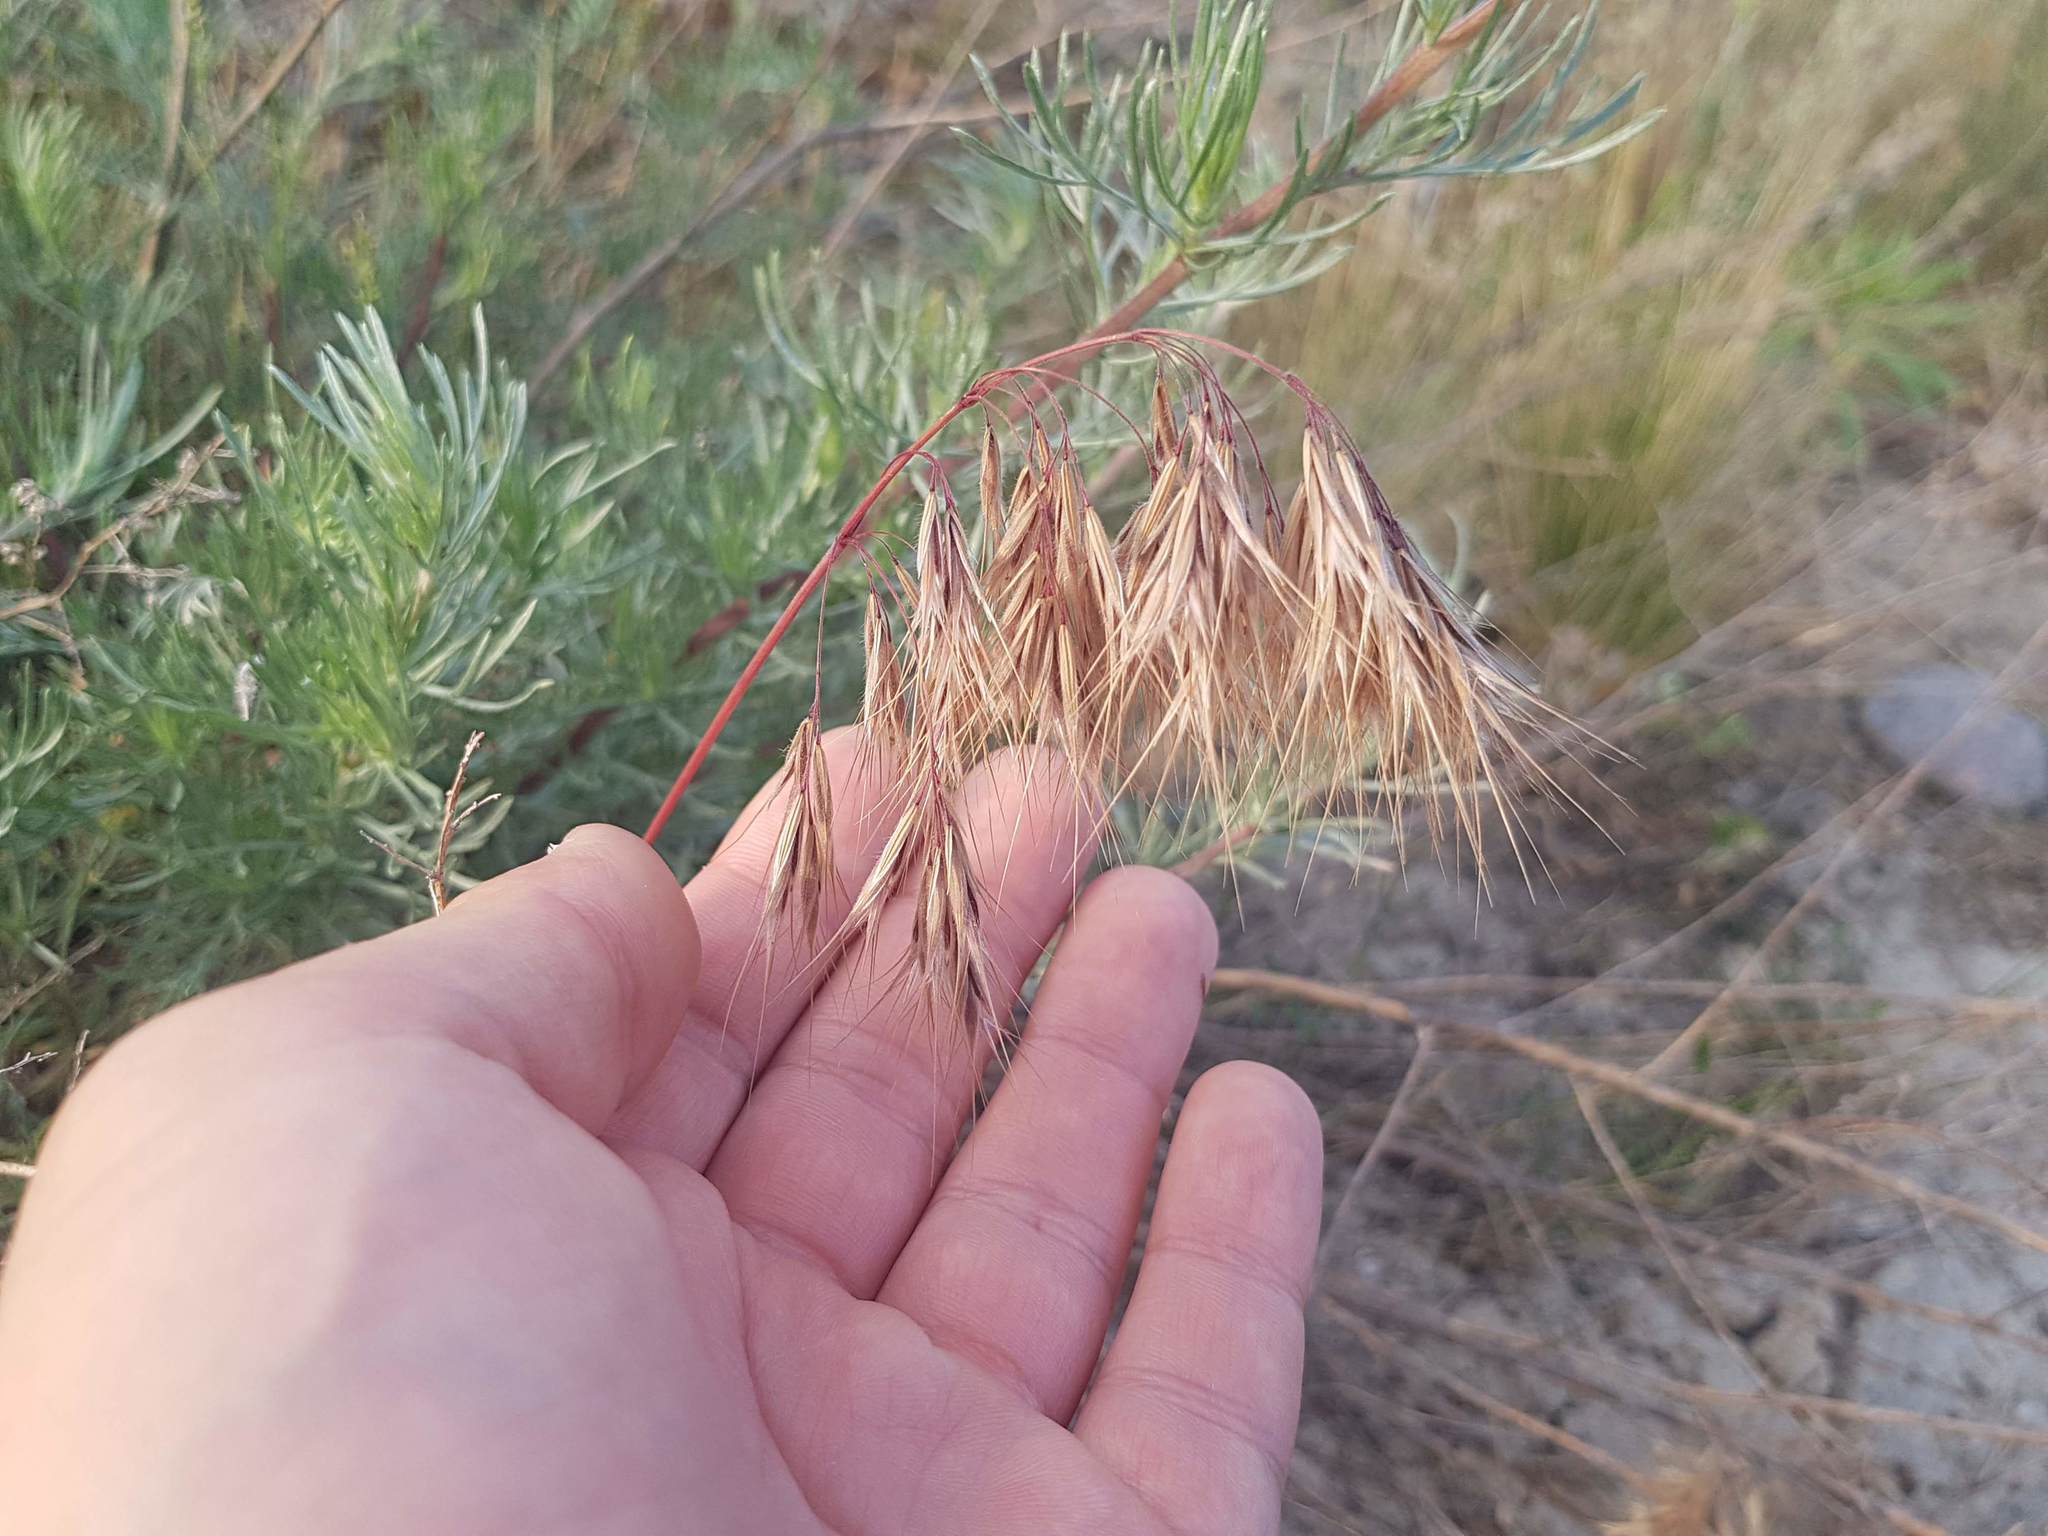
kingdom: Plantae
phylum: Tracheophyta
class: Liliopsida
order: Poales
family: Poaceae
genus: Bromus
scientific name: Bromus tectorum
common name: Cheatgrass
